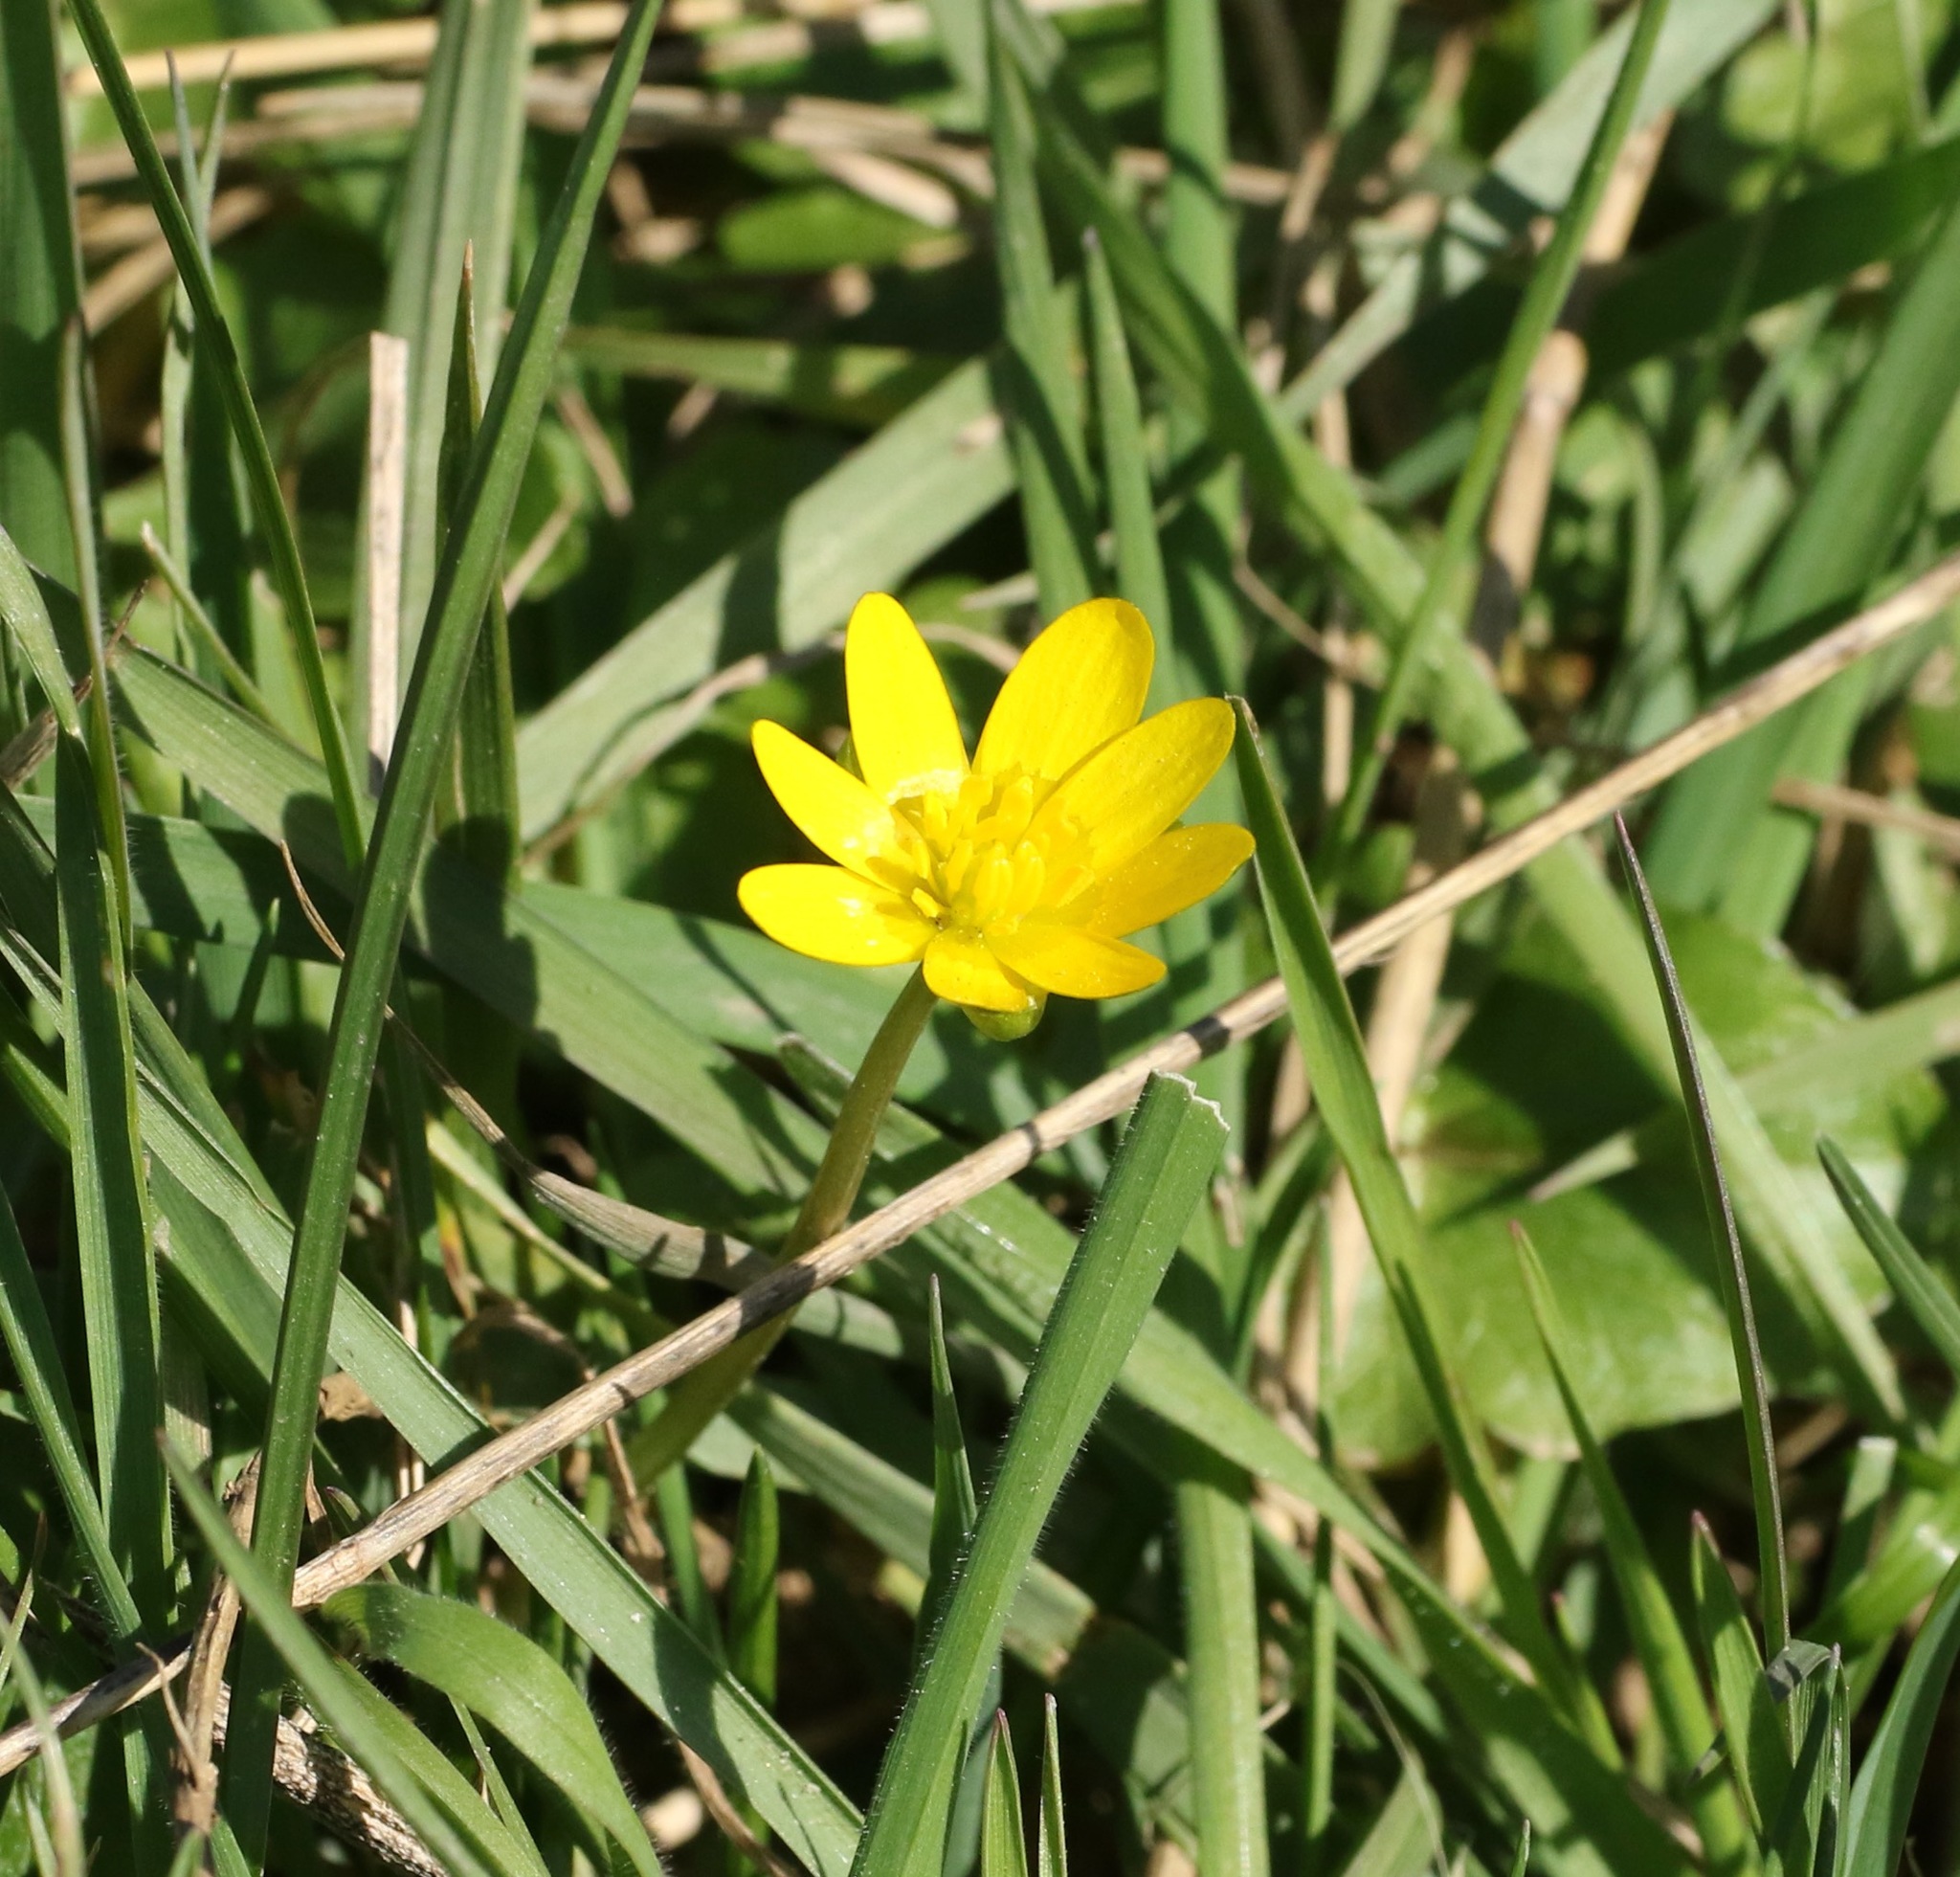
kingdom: Plantae
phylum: Tracheophyta
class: Magnoliopsida
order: Ranunculales
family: Ranunculaceae
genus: Ficaria
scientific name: Ficaria verna
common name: Lesser celandine
